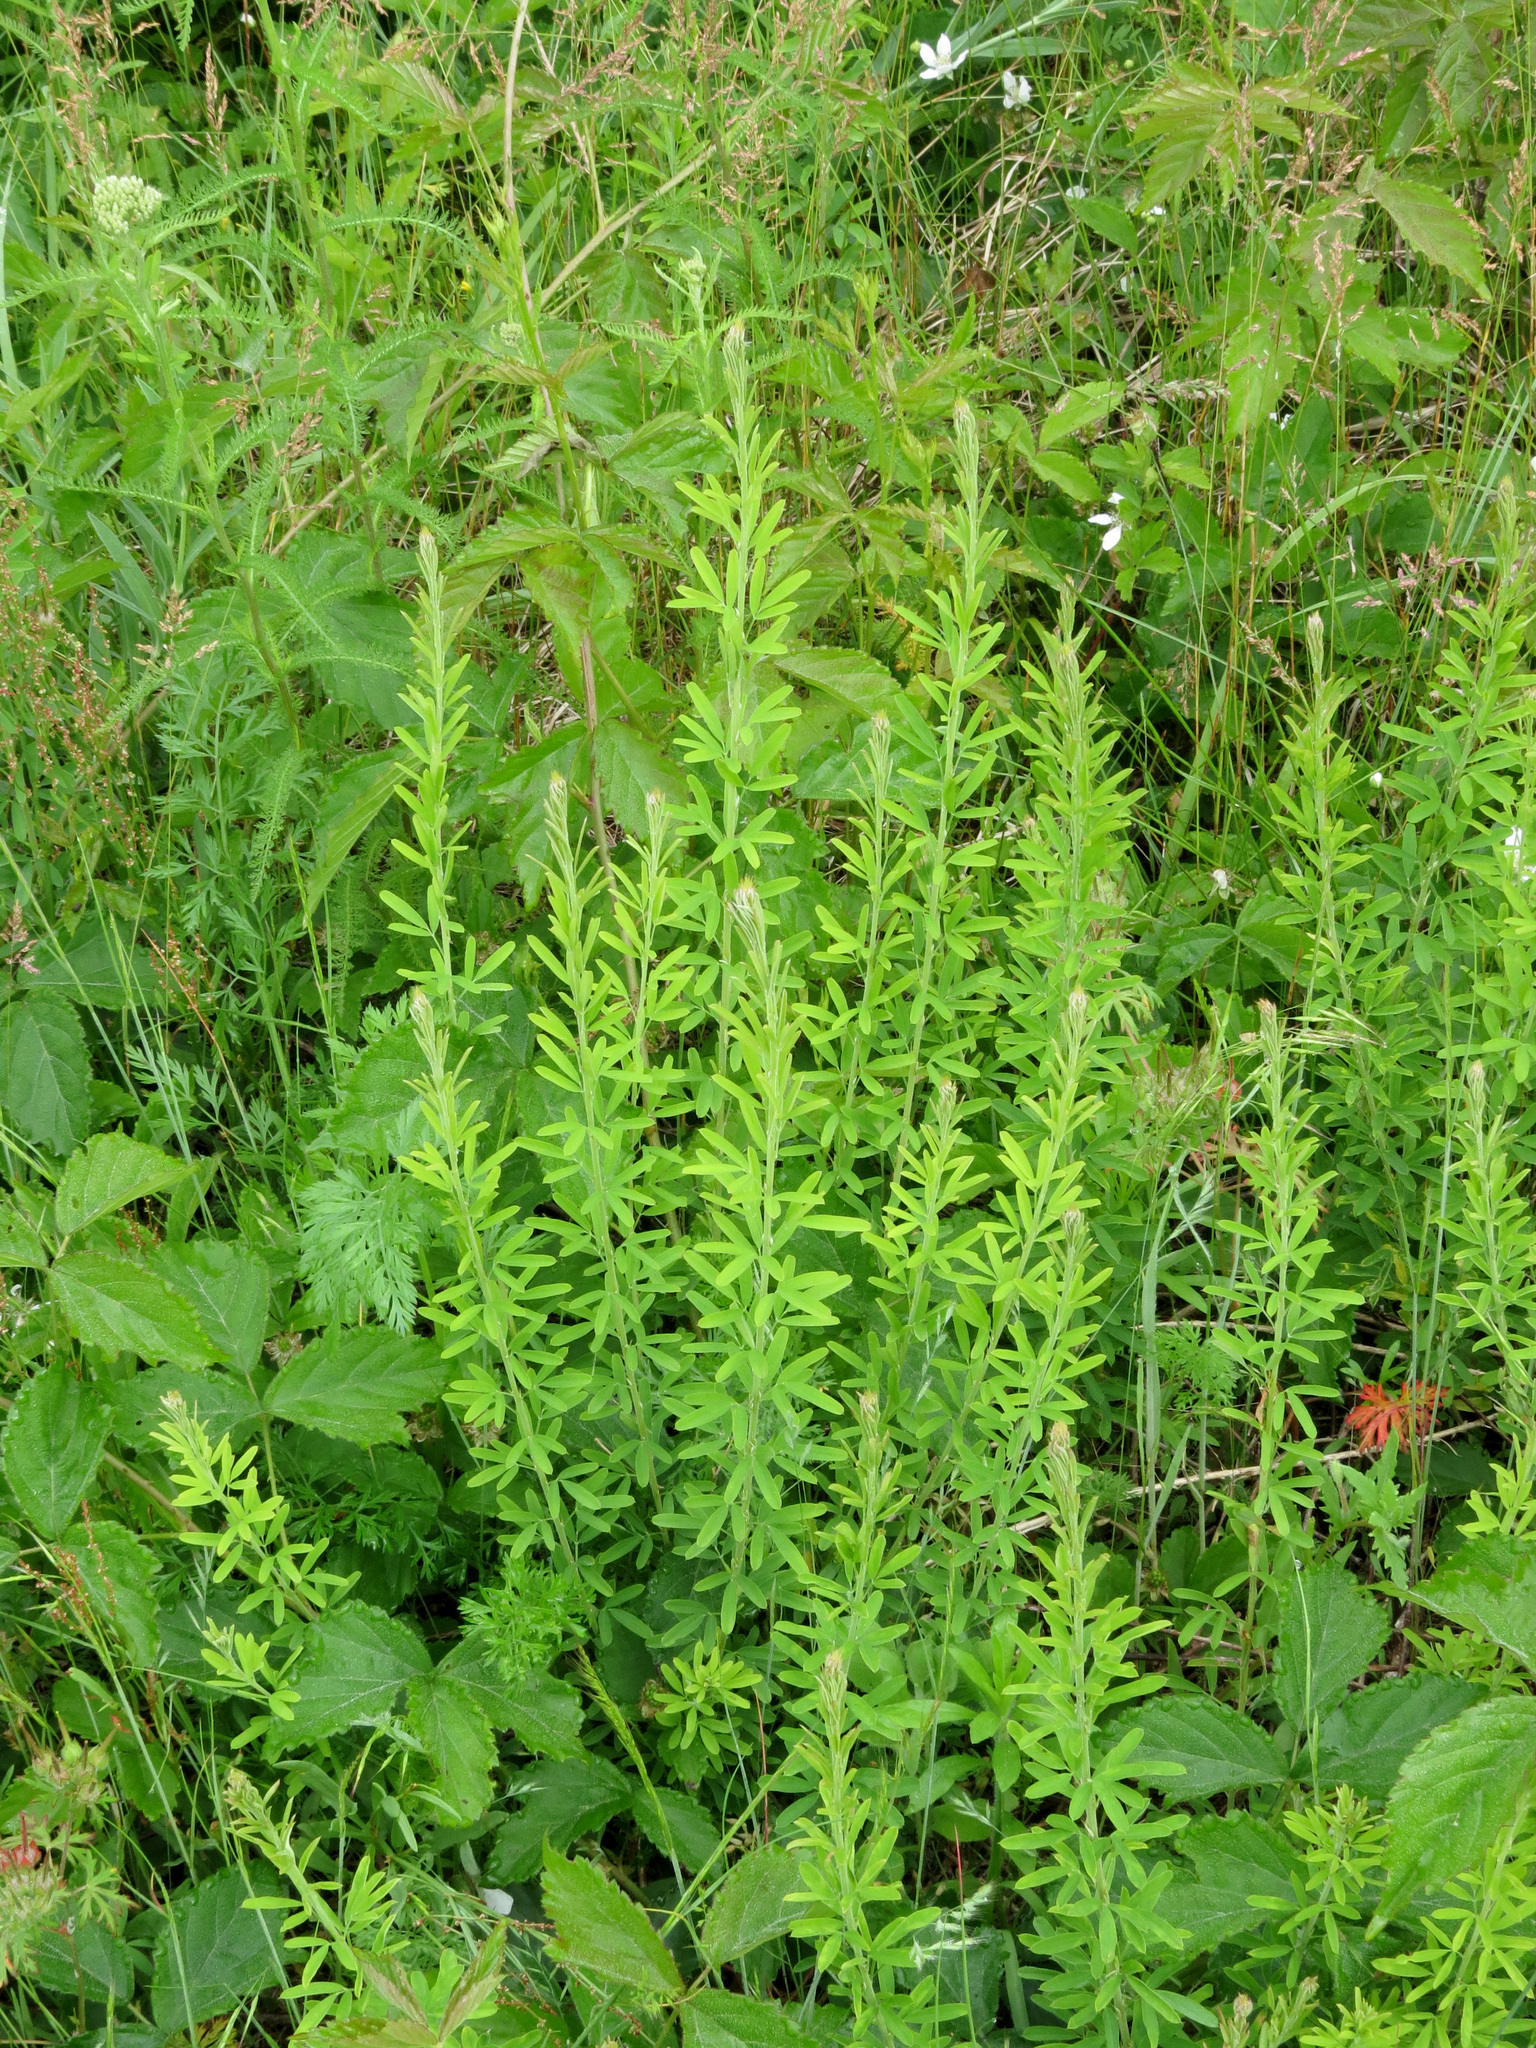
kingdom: Plantae
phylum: Tracheophyta
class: Magnoliopsida
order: Fabales
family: Fabaceae
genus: Lespedeza
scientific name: Lespedeza cuneata
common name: Chinese bush-clover
